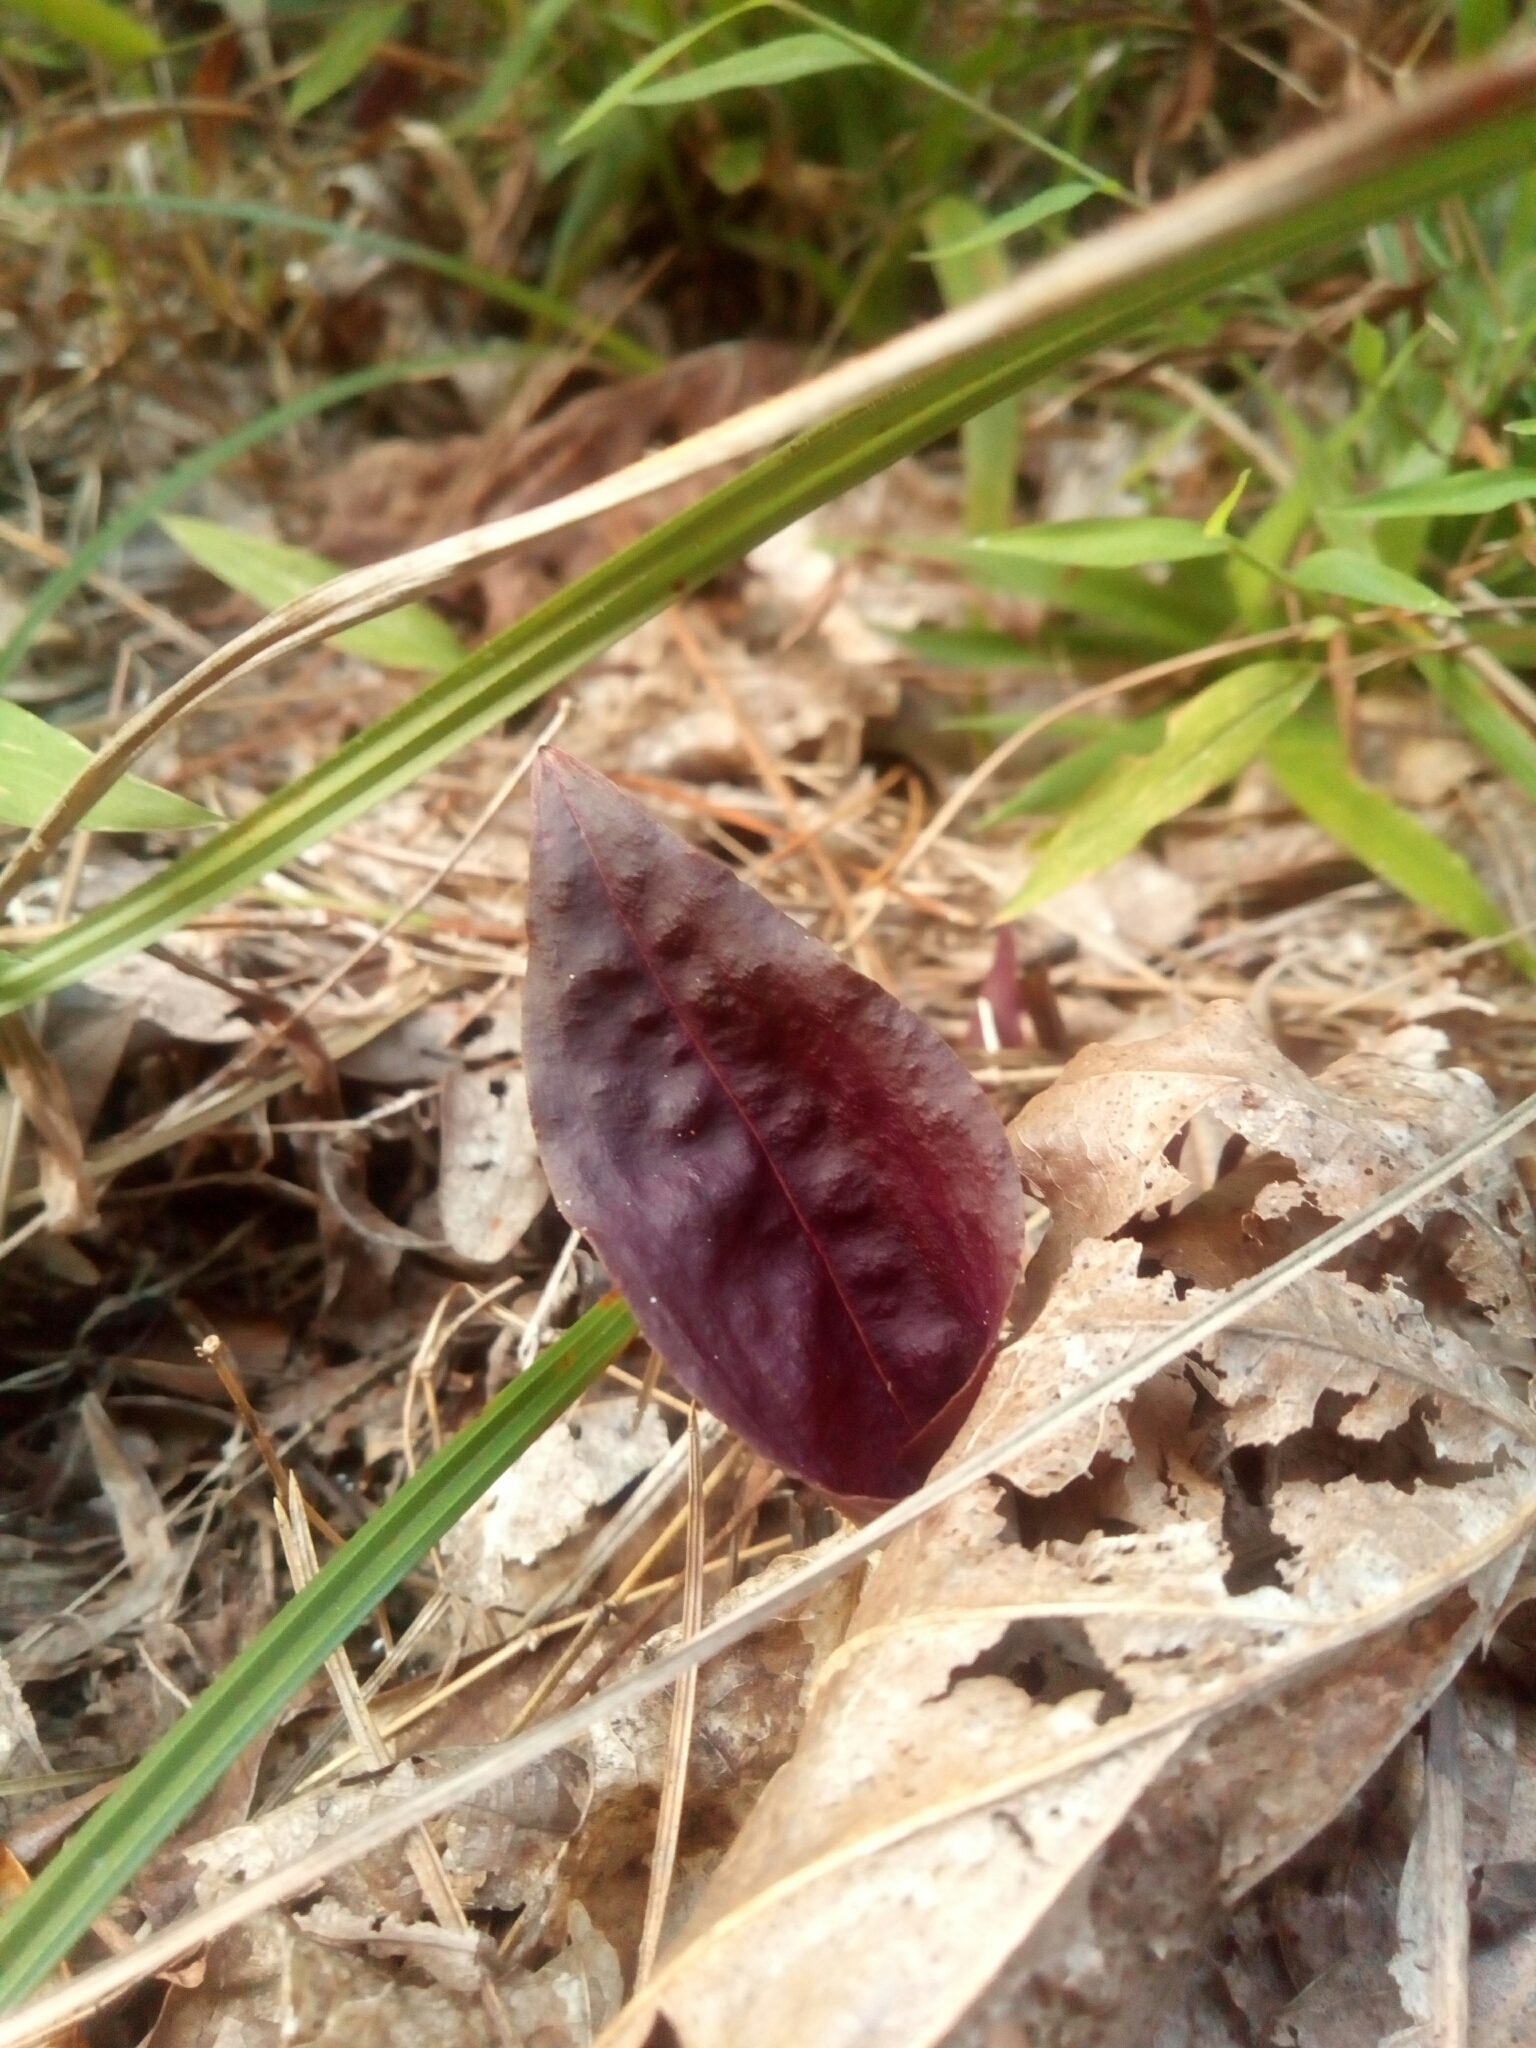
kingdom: Plantae
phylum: Tracheophyta
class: Liliopsida
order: Asparagales
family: Orchidaceae
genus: Tipularia
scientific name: Tipularia discolor
